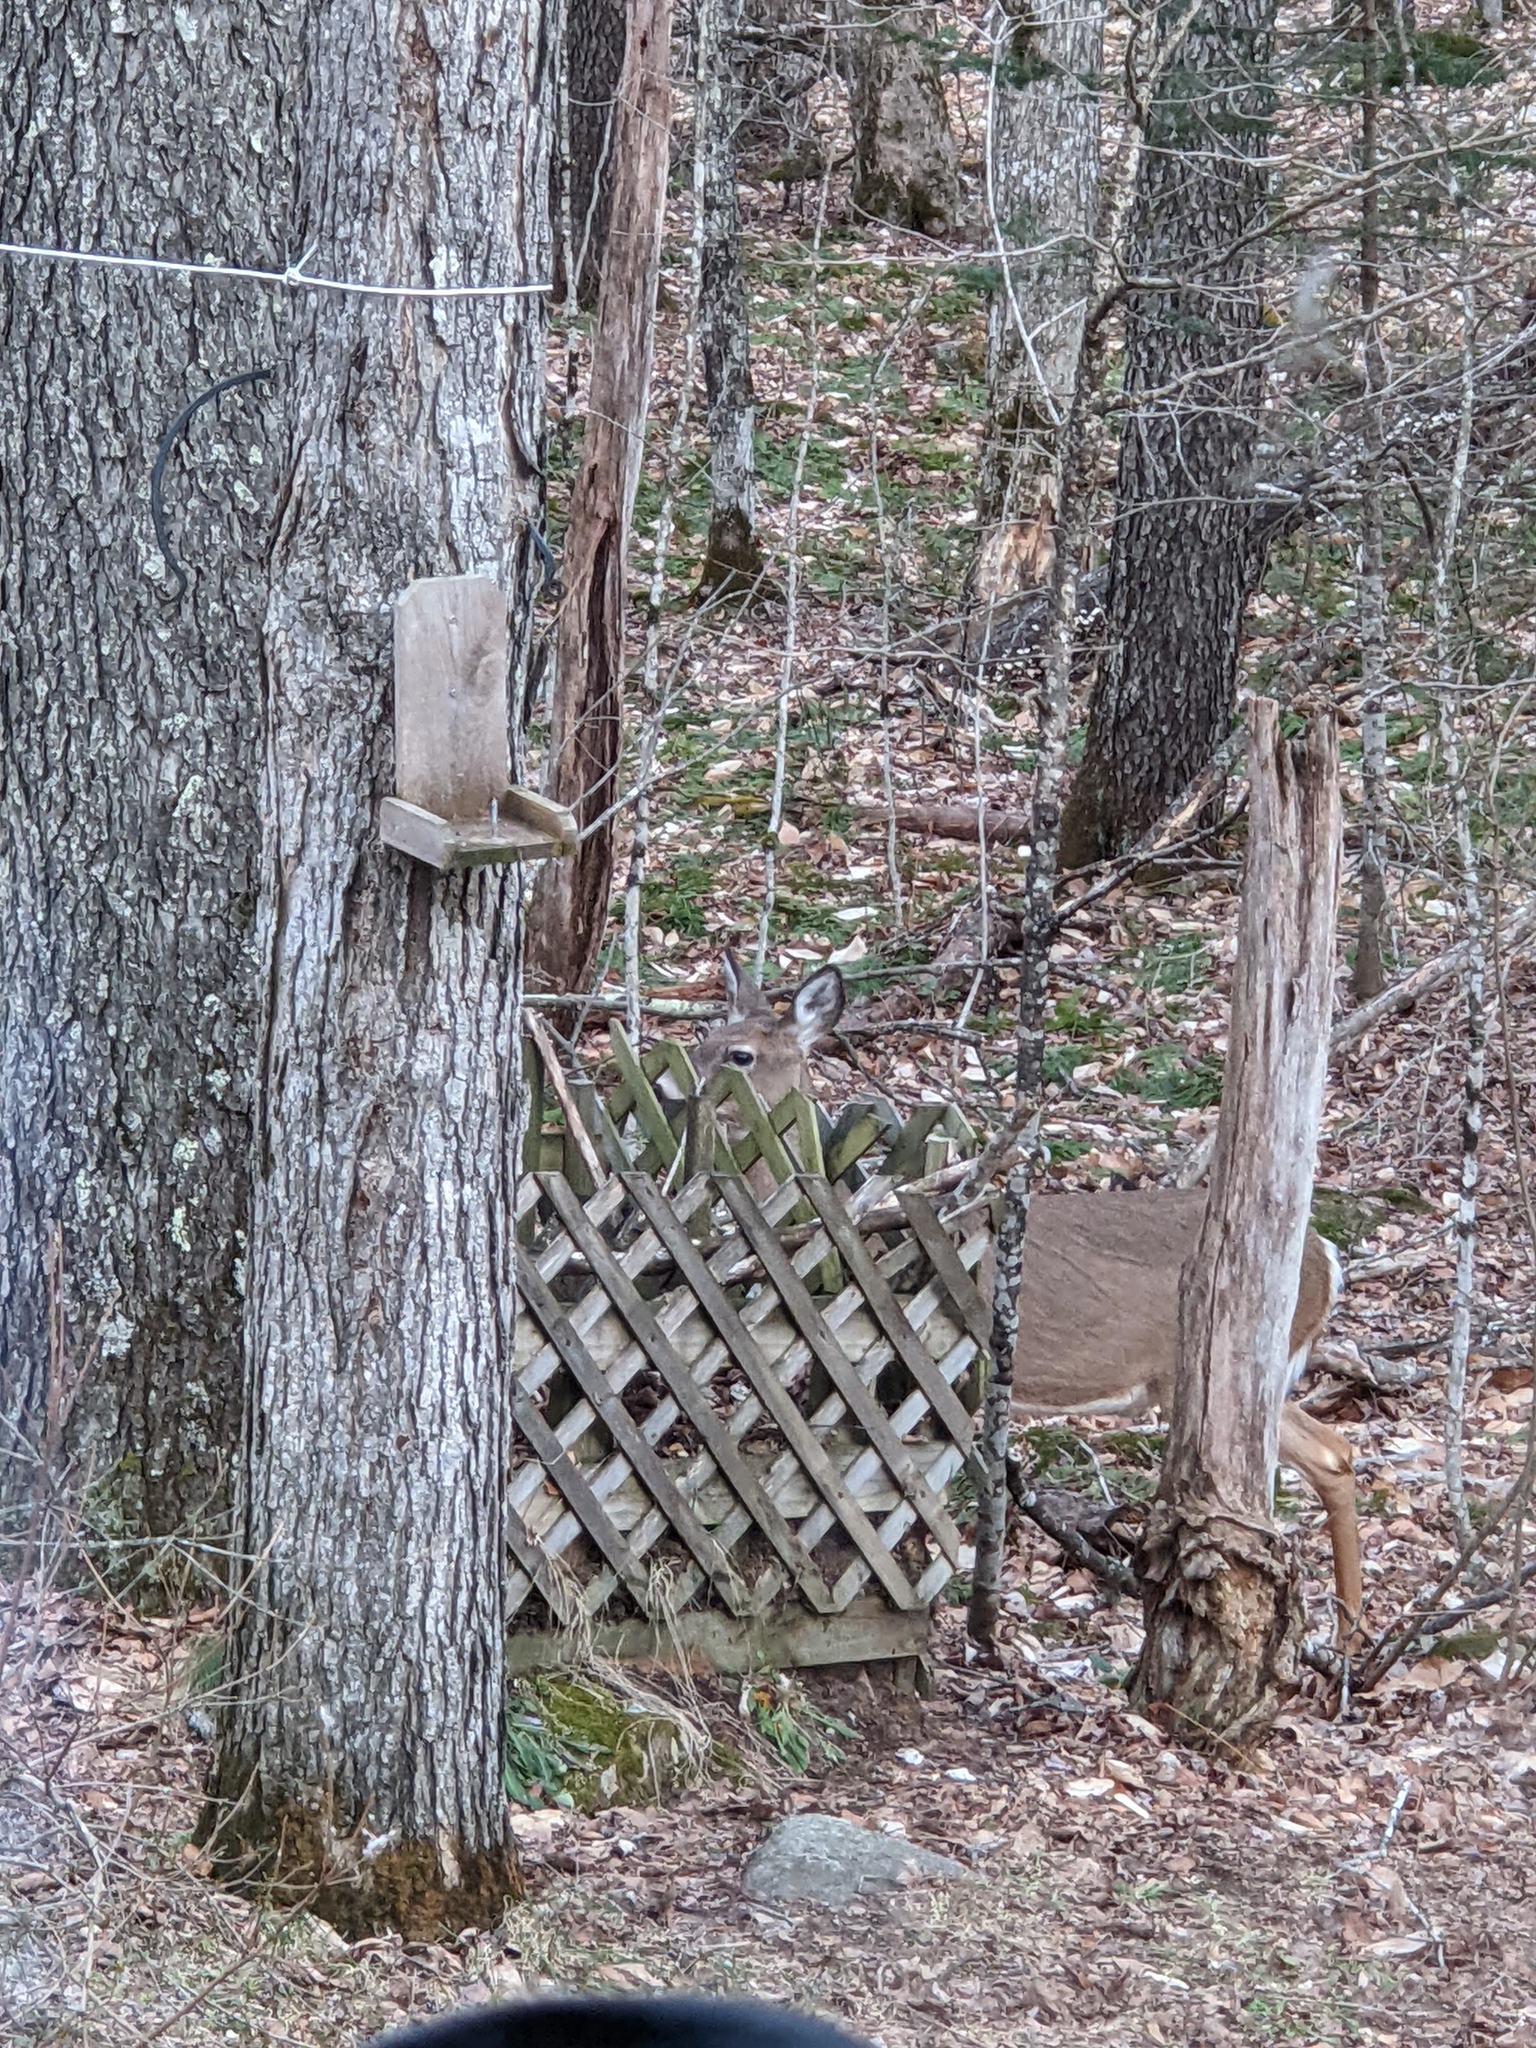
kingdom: Animalia
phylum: Chordata
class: Mammalia
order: Artiodactyla
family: Cervidae
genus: Odocoileus
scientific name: Odocoileus virginianus
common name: White-tailed deer
